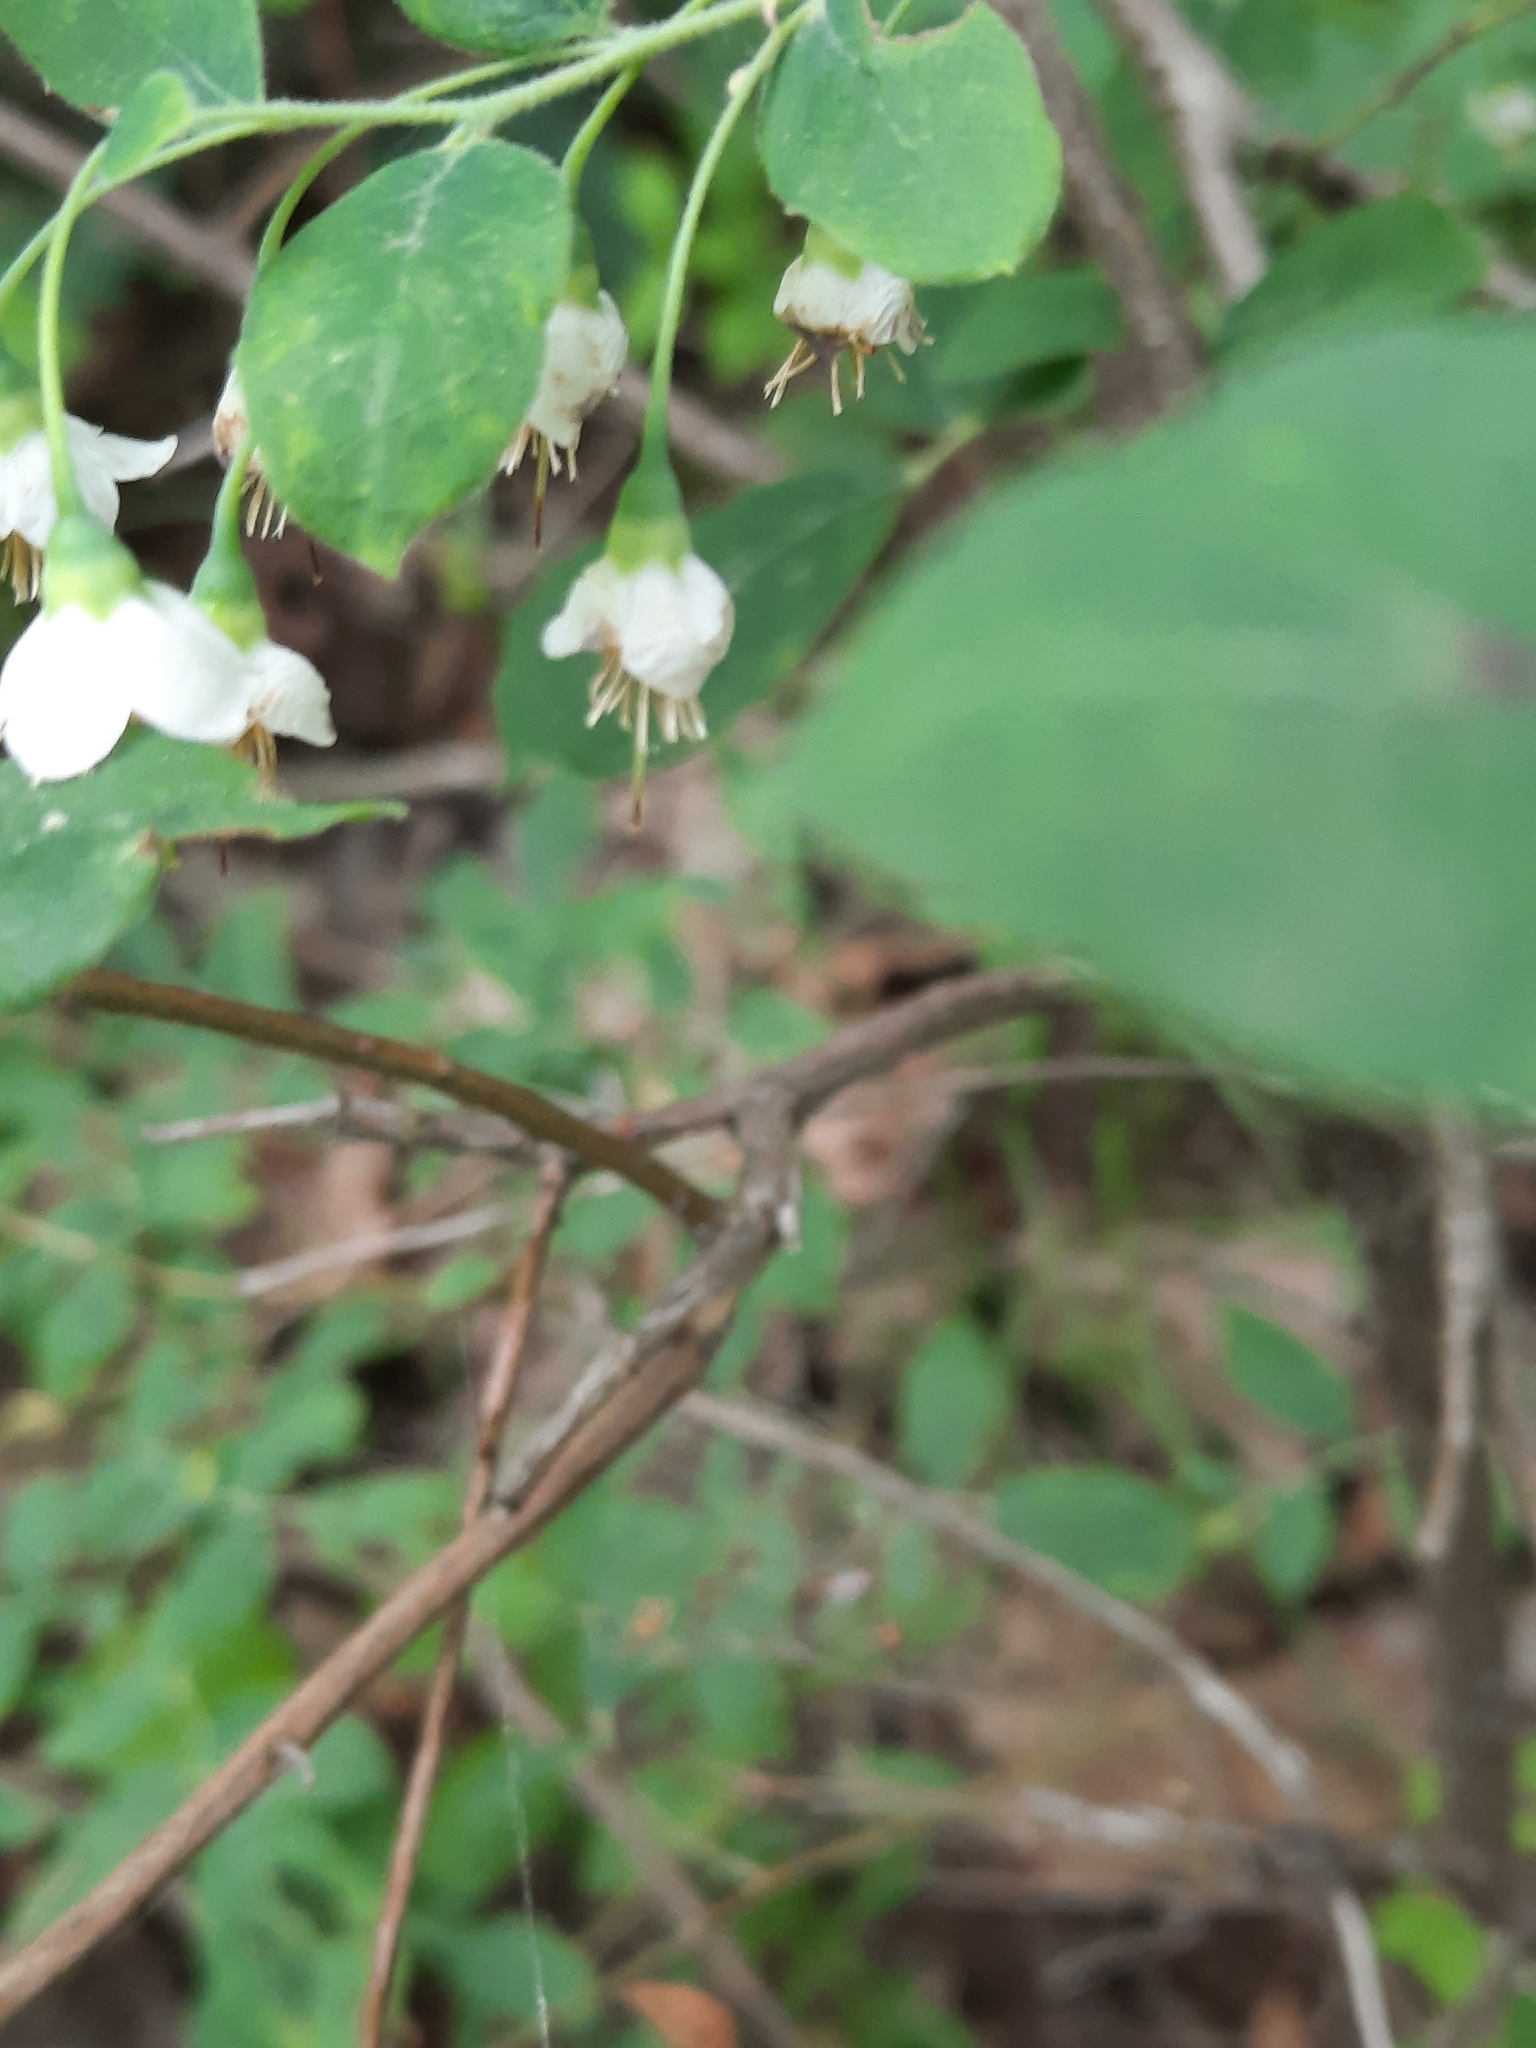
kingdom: Plantae
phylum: Tracheophyta
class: Magnoliopsida
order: Ericales
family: Ericaceae
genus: Vaccinium
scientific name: Vaccinium stamineum
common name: Deerberry
